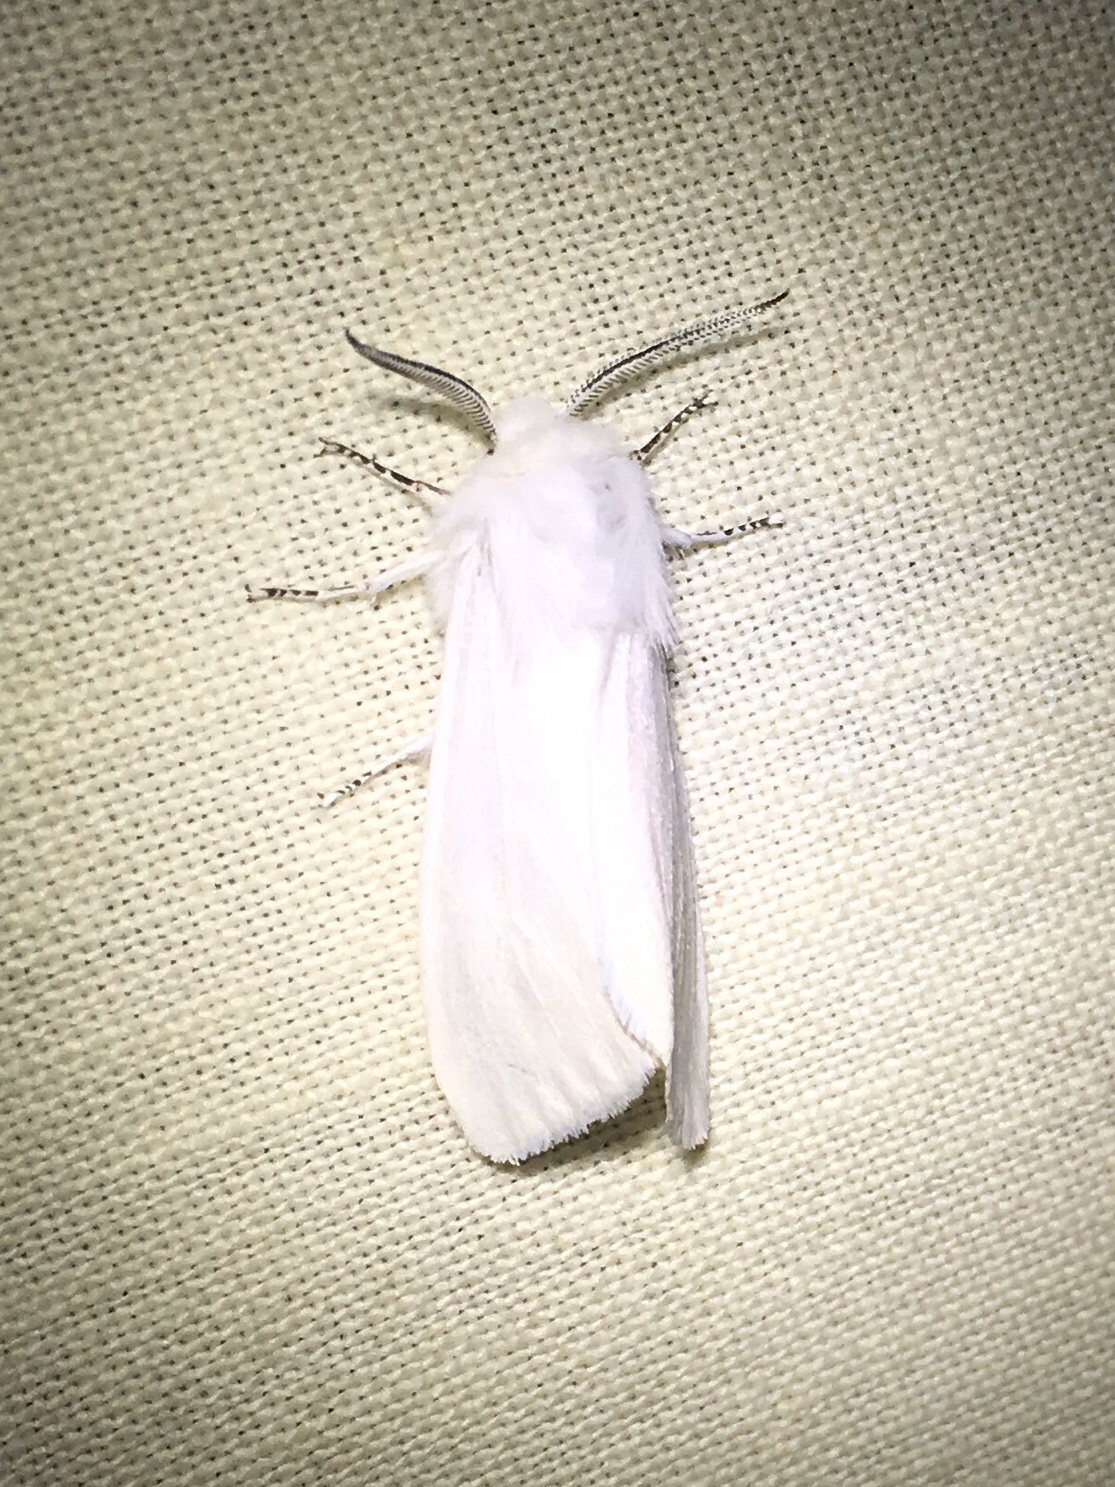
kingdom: Animalia
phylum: Arthropoda
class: Insecta
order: Lepidoptera
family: Erebidae
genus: Hyphantria
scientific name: Hyphantria cunea
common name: American white moth
